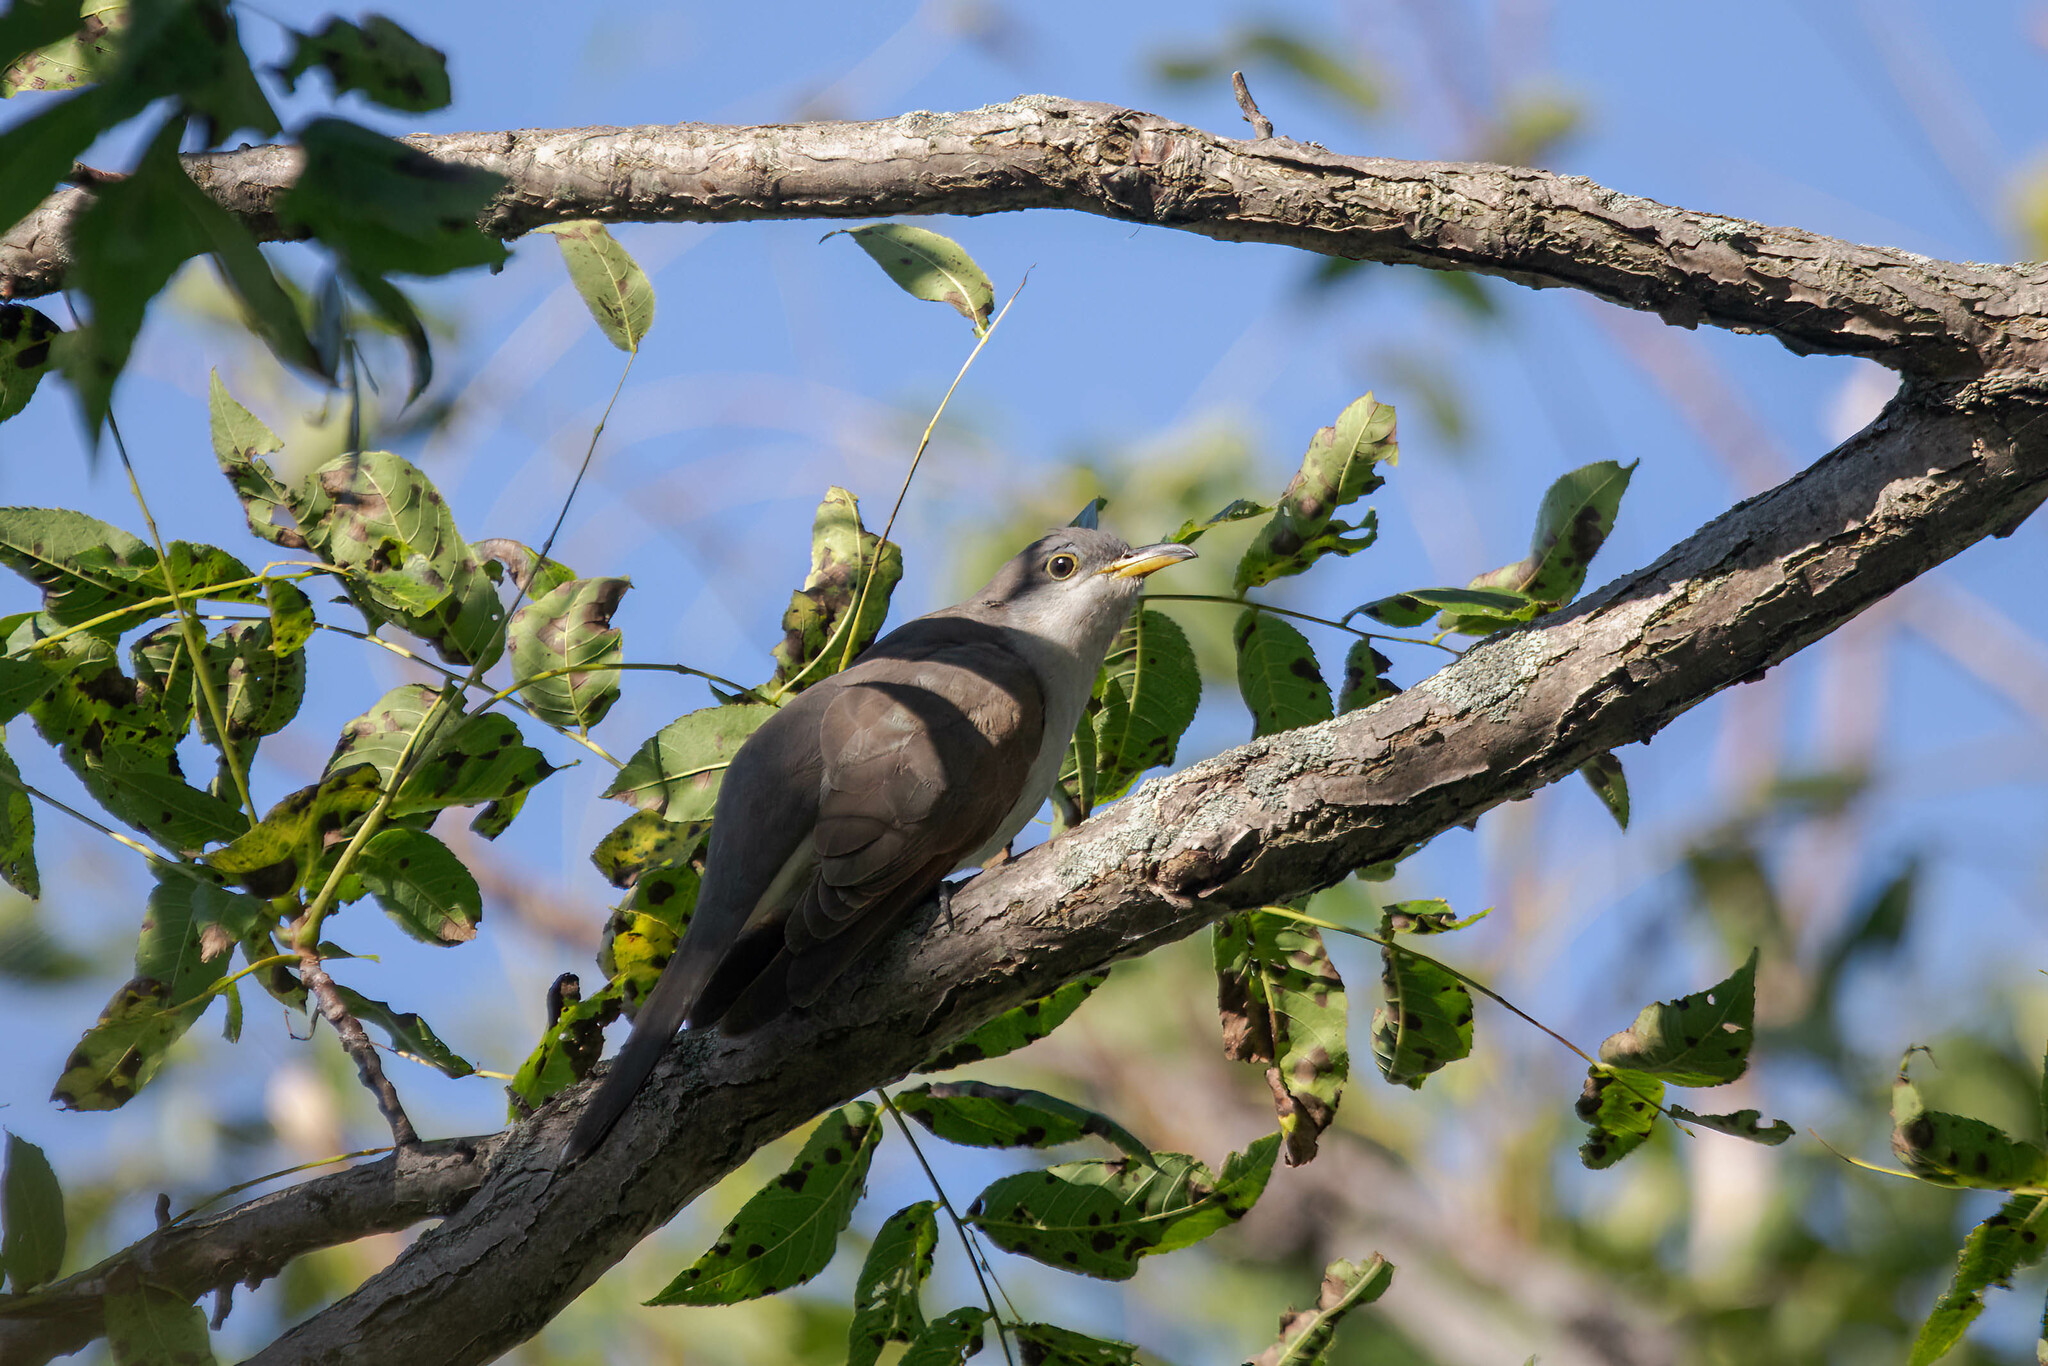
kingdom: Animalia
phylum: Chordata
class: Aves
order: Cuculiformes
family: Cuculidae
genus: Coccyzus
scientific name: Coccyzus americanus
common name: Yellow-billed cuckoo
